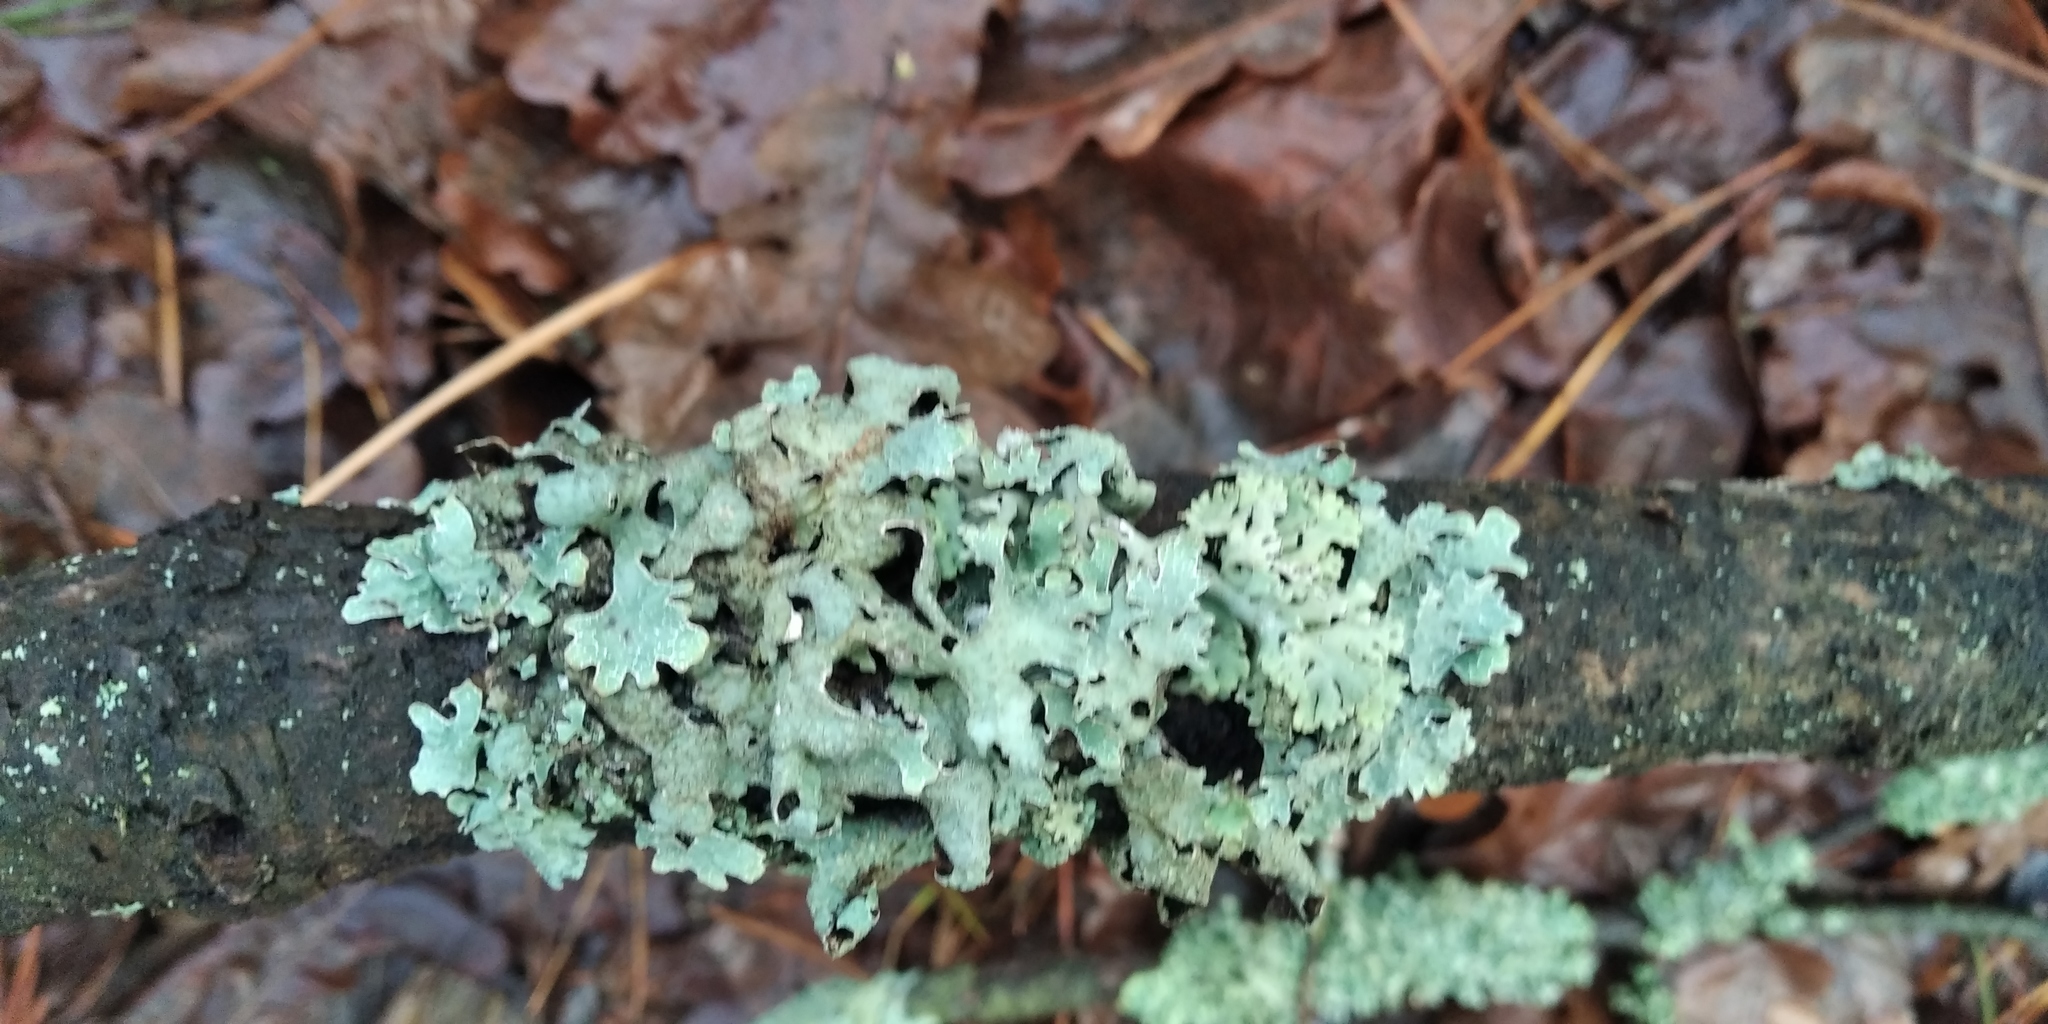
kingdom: Fungi
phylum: Ascomycota
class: Lecanoromycetes
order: Lecanorales
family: Parmeliaceae
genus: Parmelia
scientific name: Parmelia sulcata
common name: Netted shield lichen
